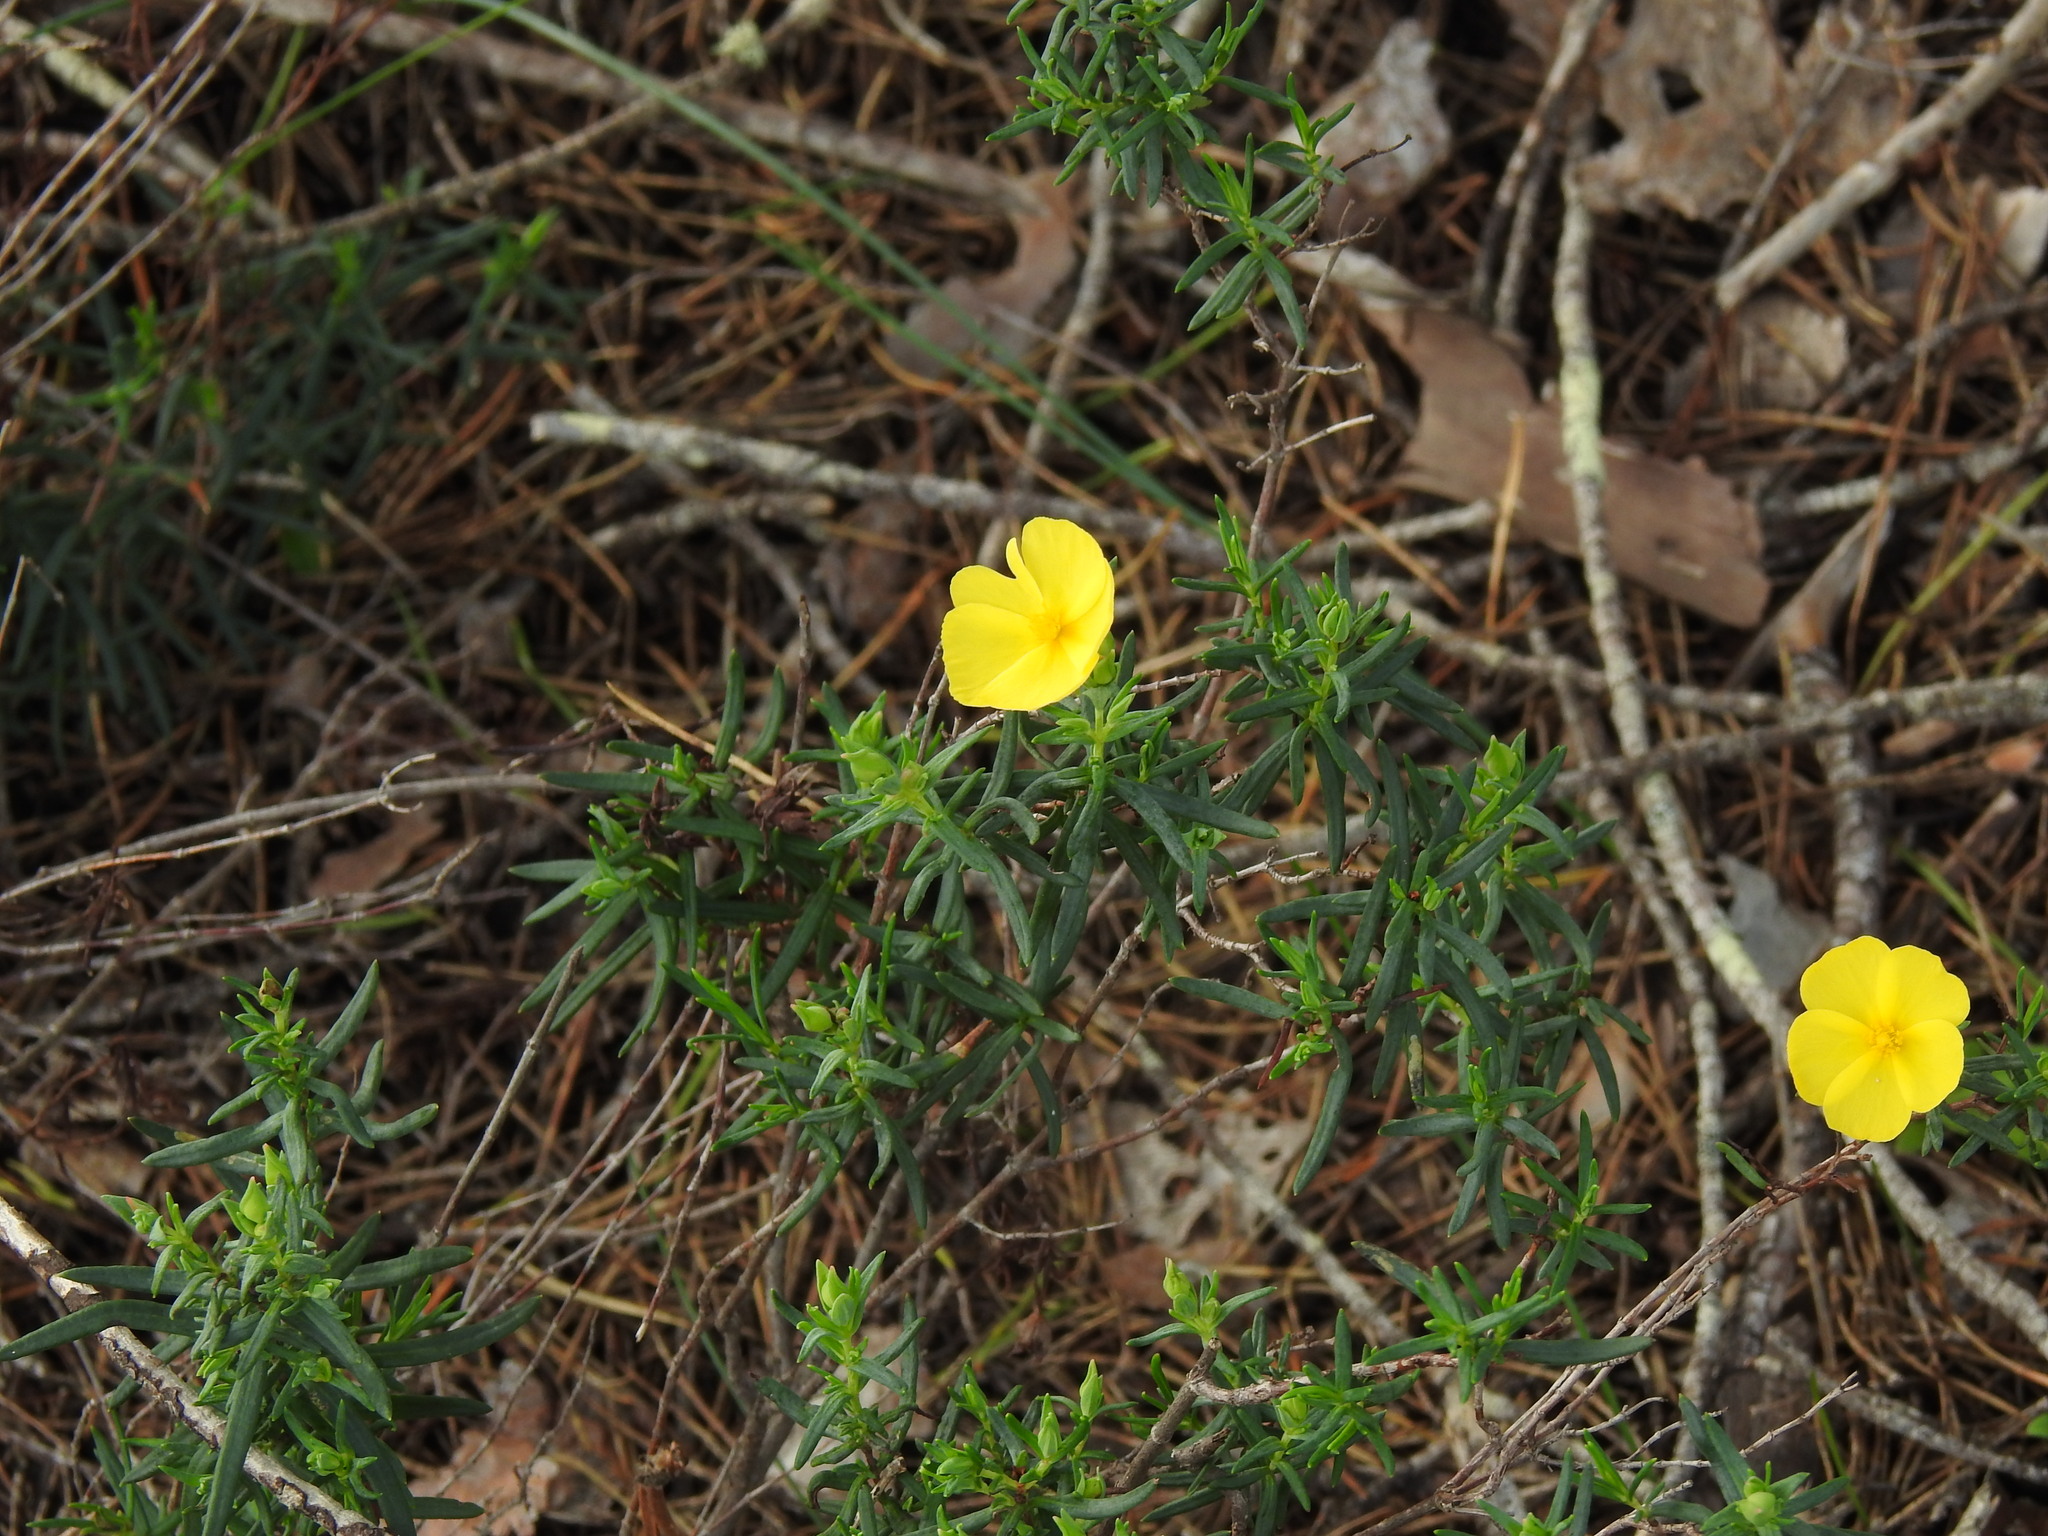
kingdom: Plantae
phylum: Tracheophyta
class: Magnoliopsida
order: Malvales
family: Cistaceae
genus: Halimium
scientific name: Halimium calycinum
